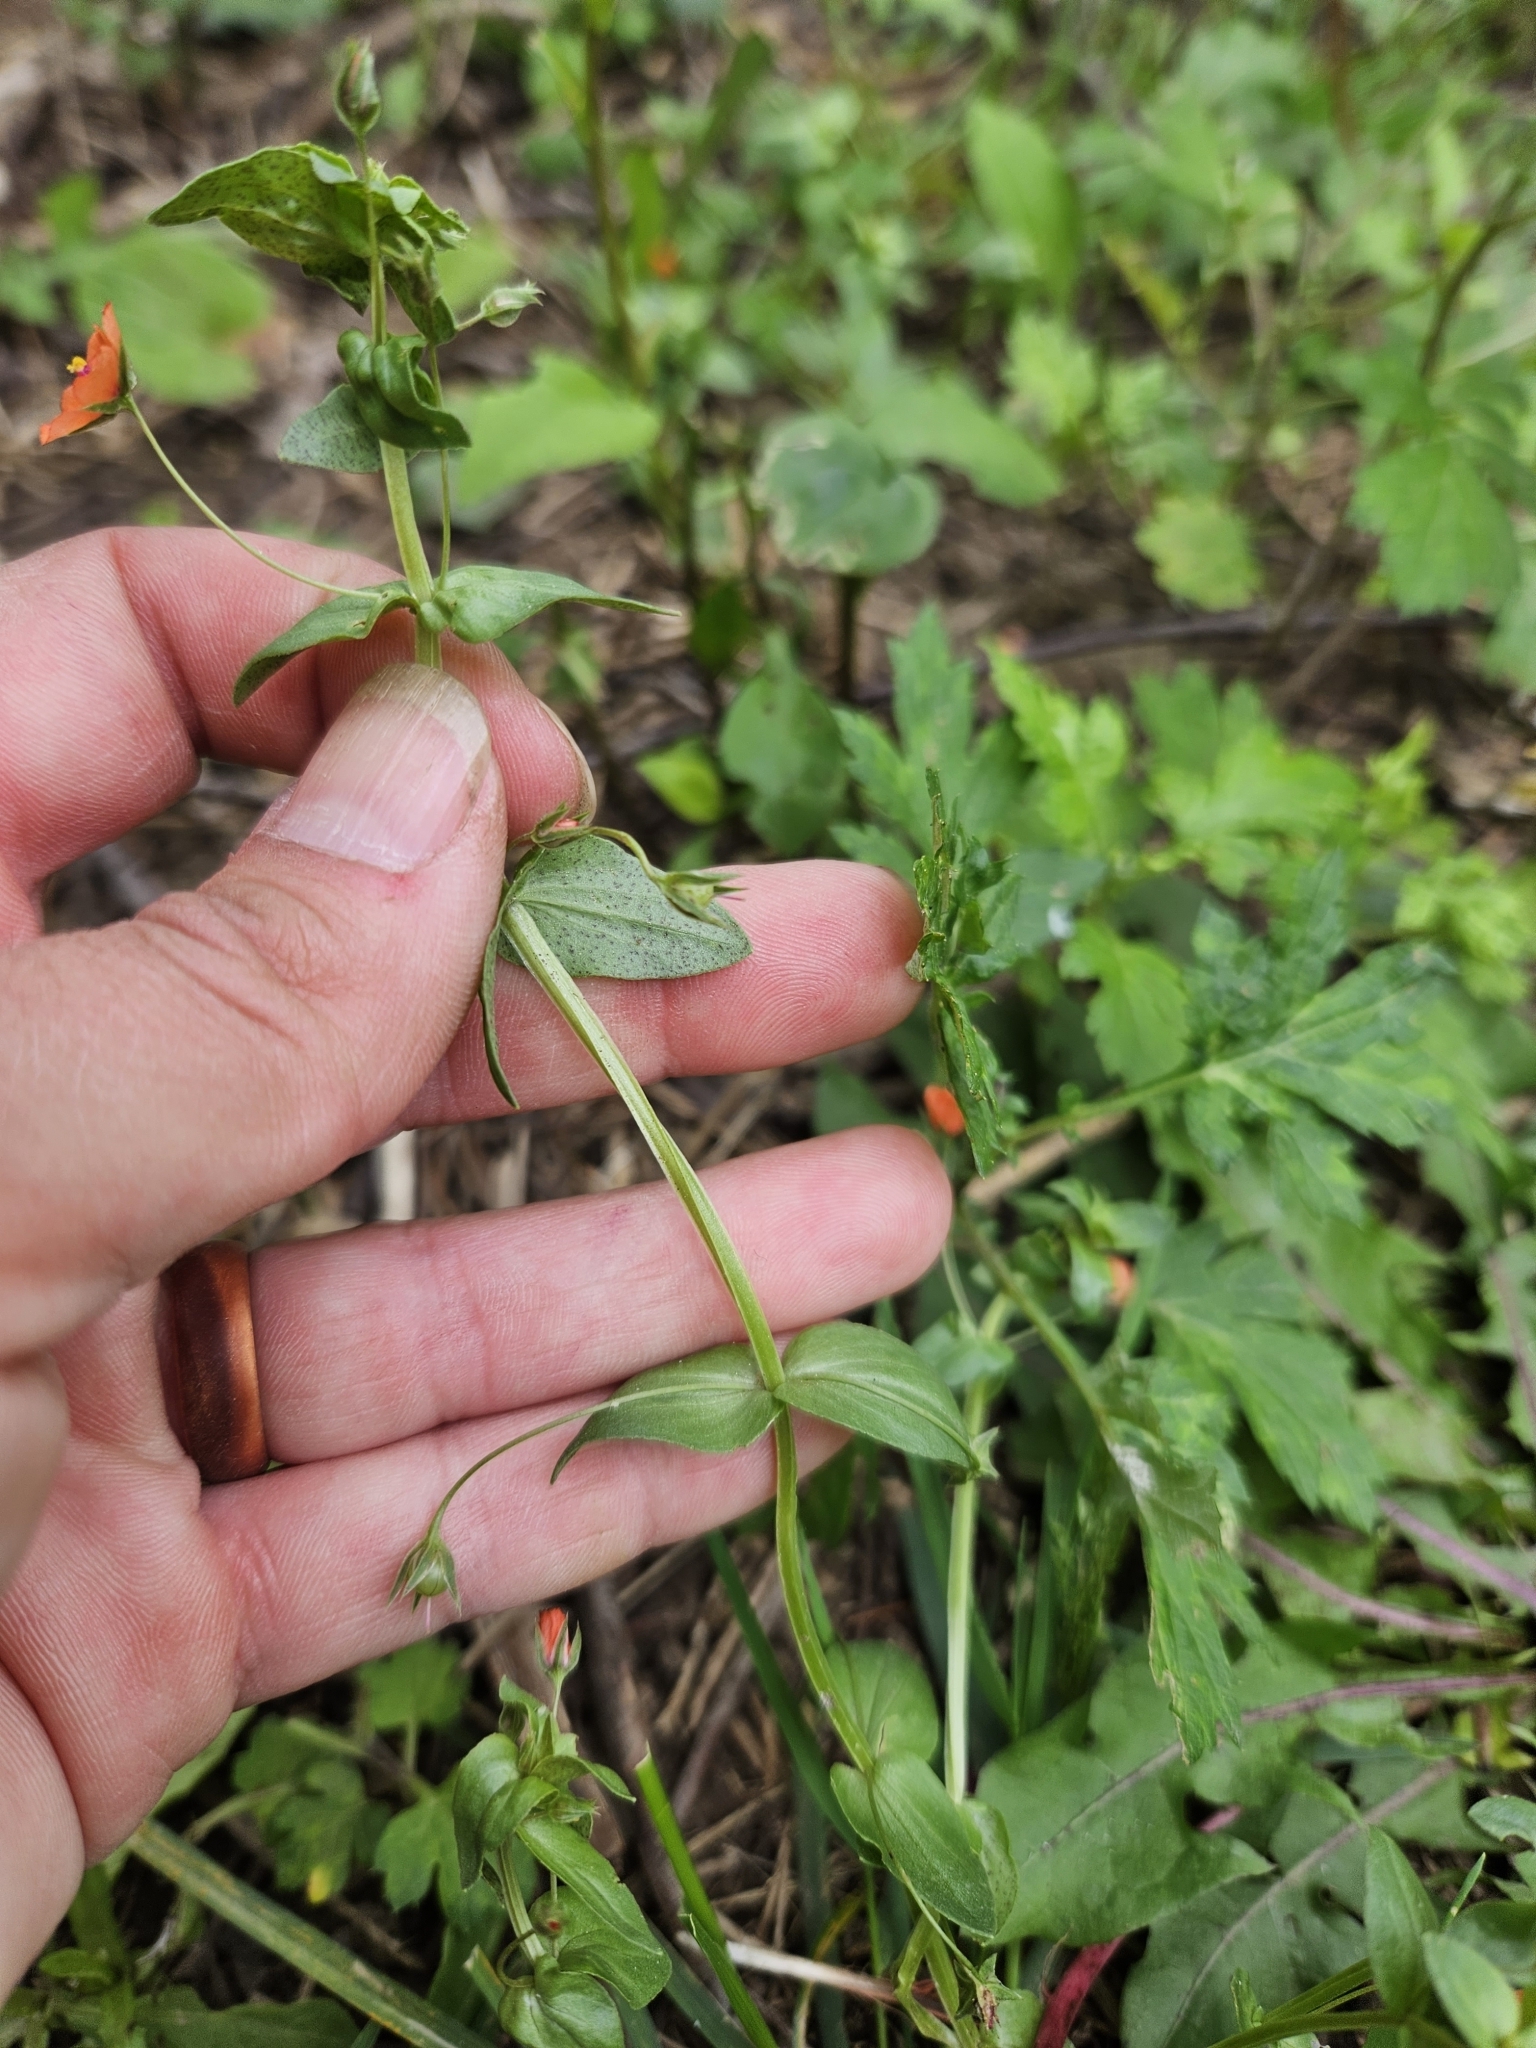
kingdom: Plantae
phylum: Tracheophyta
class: Magnoliopsida
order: Ericales
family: Primulaceae
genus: Lysimachia
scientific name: Lysimachia arvensis
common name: Scarlet pimpernel
